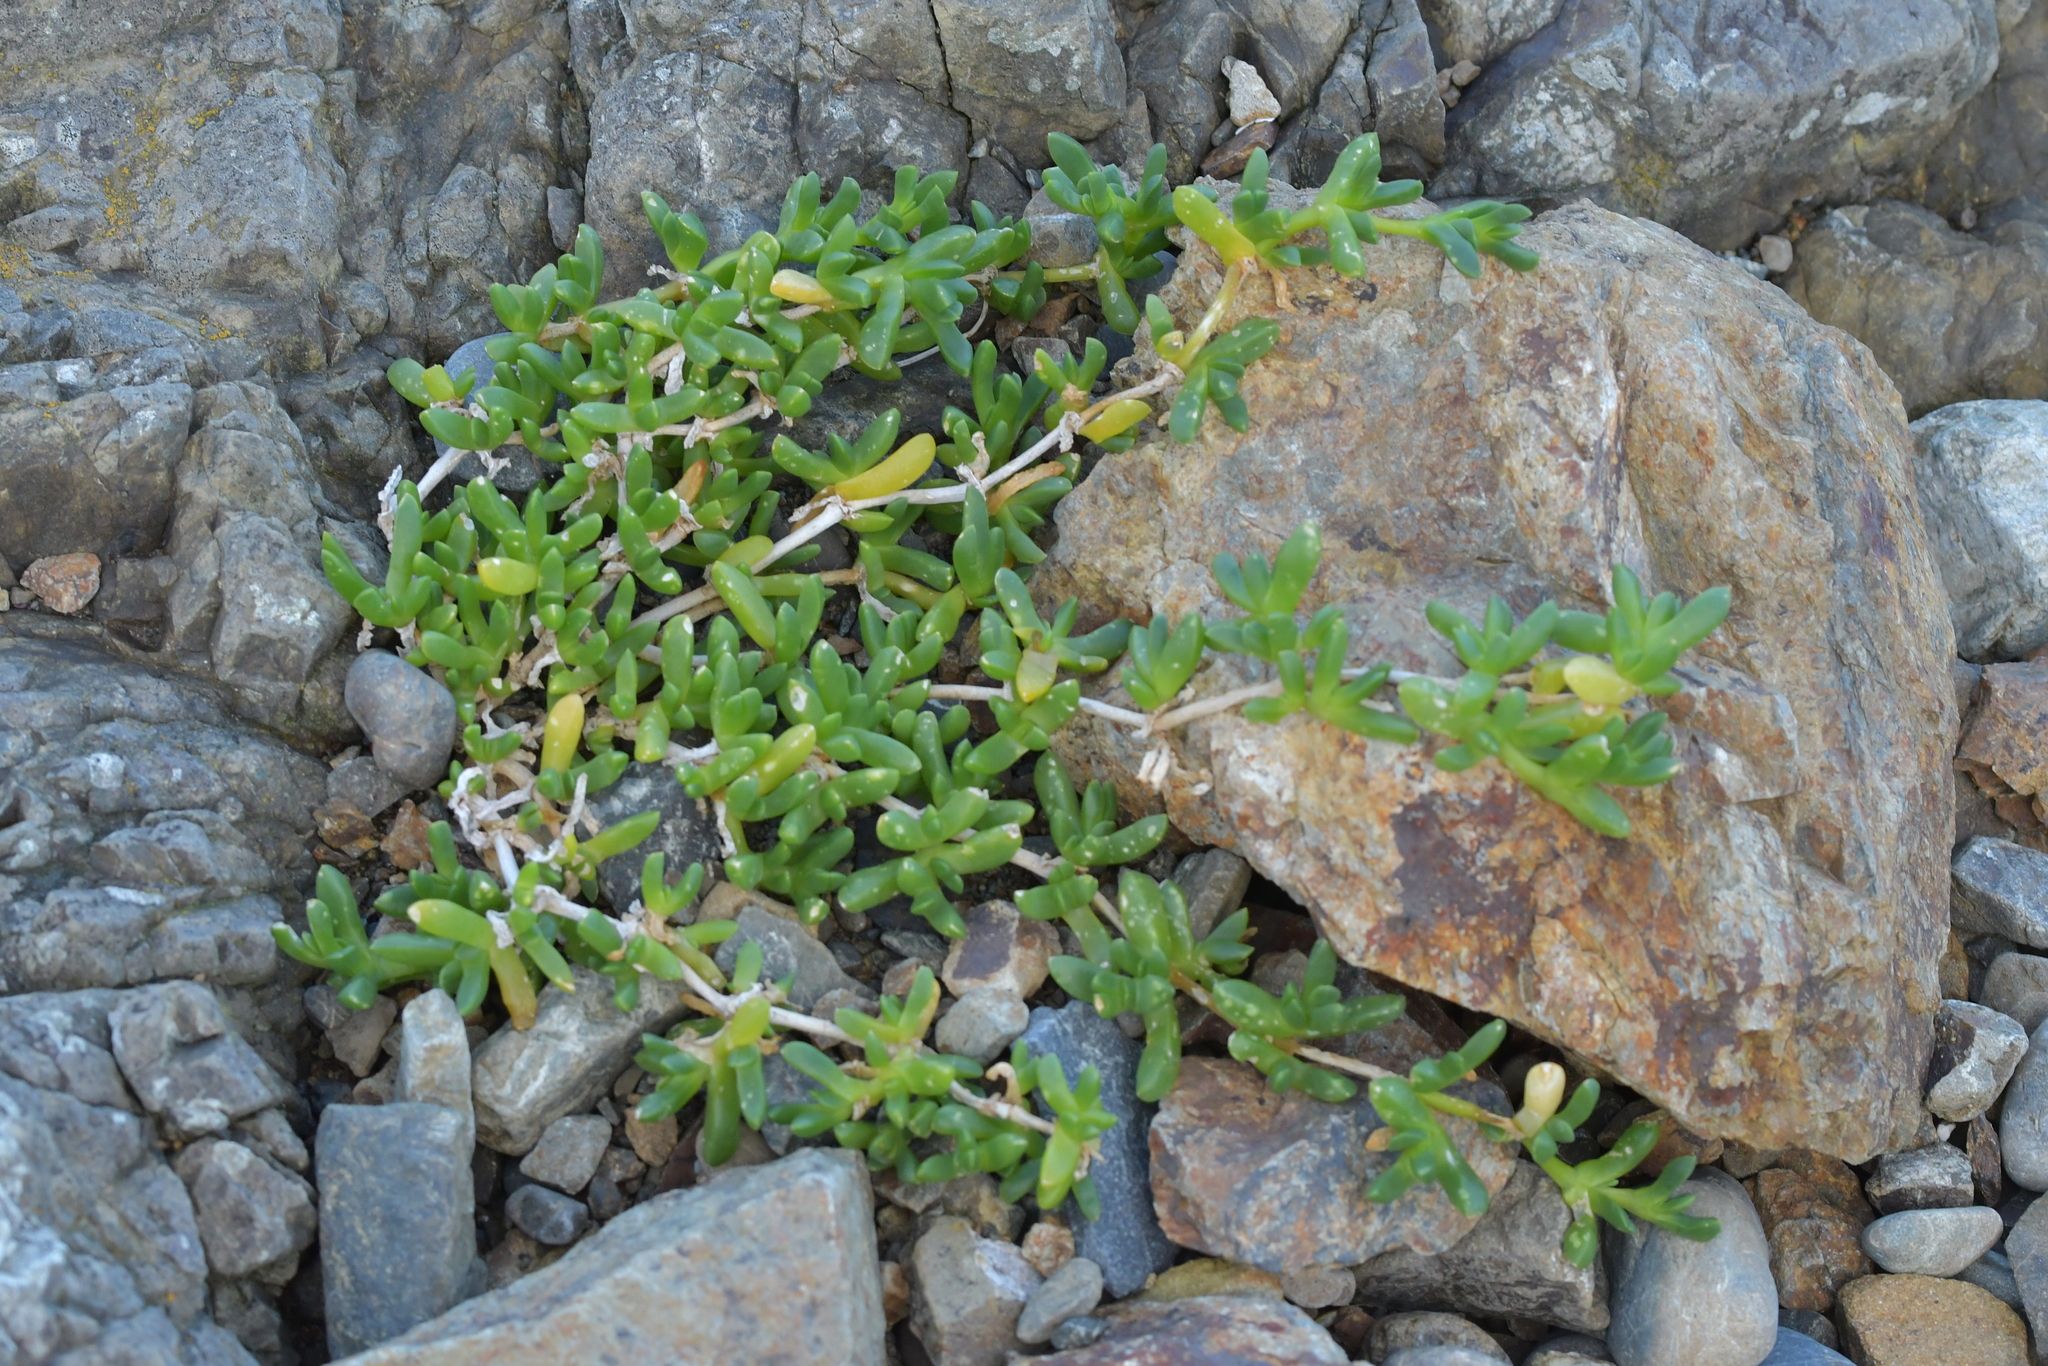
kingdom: Plantae
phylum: Tracheophyta
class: Magnoliopsida
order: Caryophyllales
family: Aizoaceae
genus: Disphyma
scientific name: Disphyma australe
